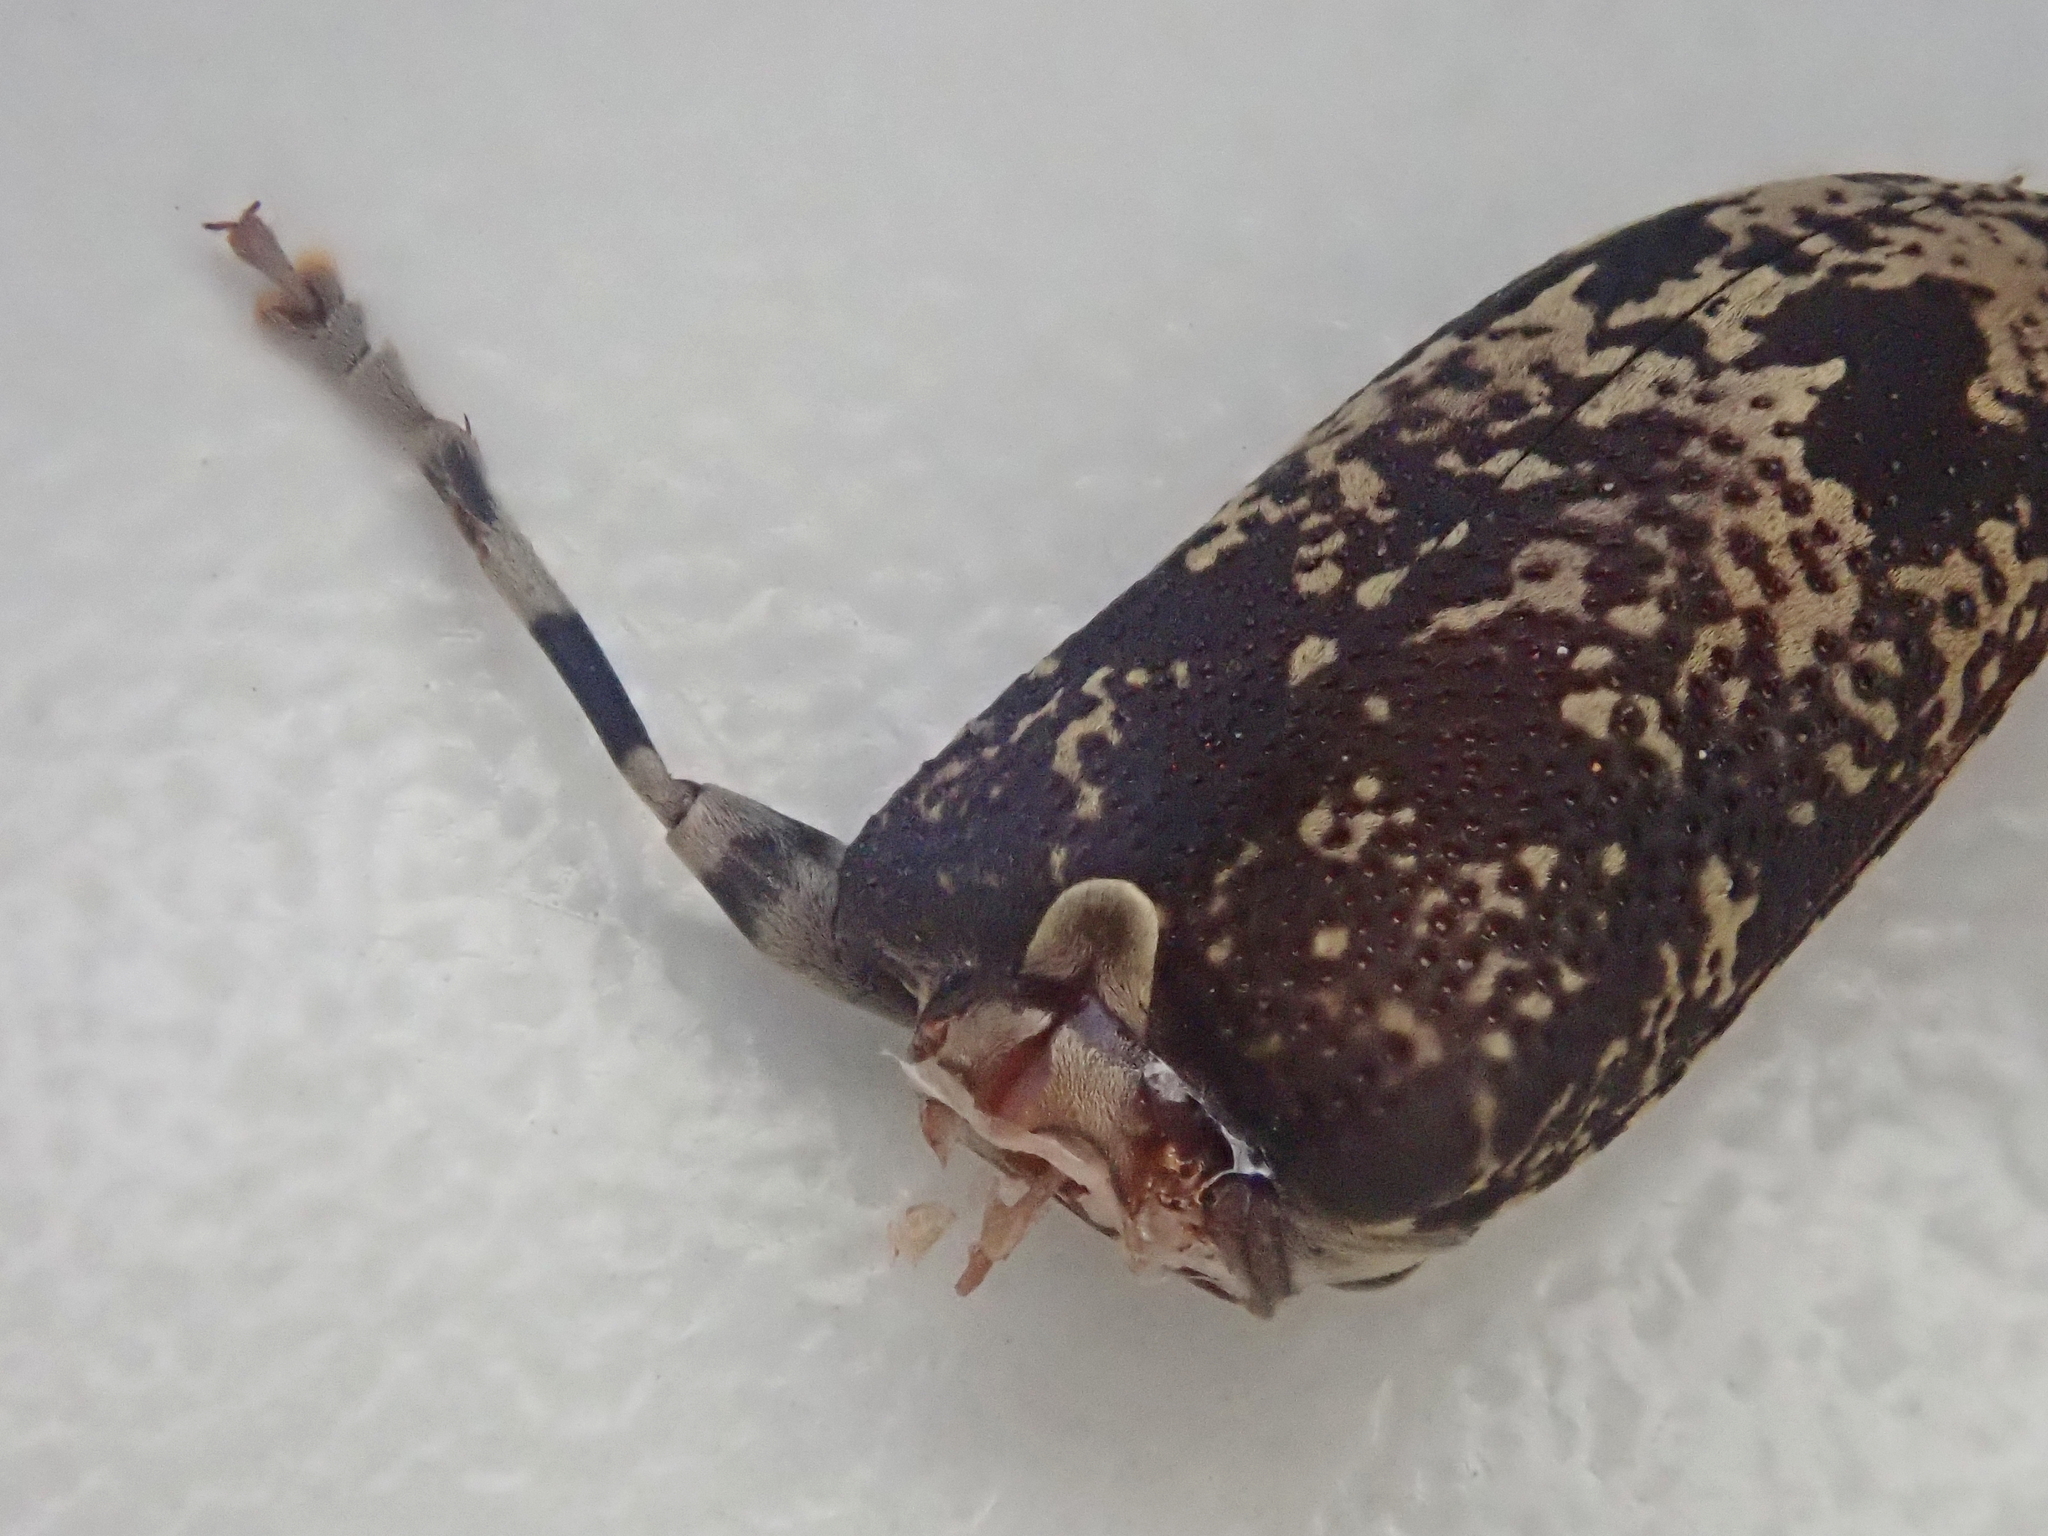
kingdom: Animalia
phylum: Arthropoda
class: Insecta
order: Coleoptera
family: Cerambycidae
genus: Myoxomorpha
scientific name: Myoxomorpha funesta
